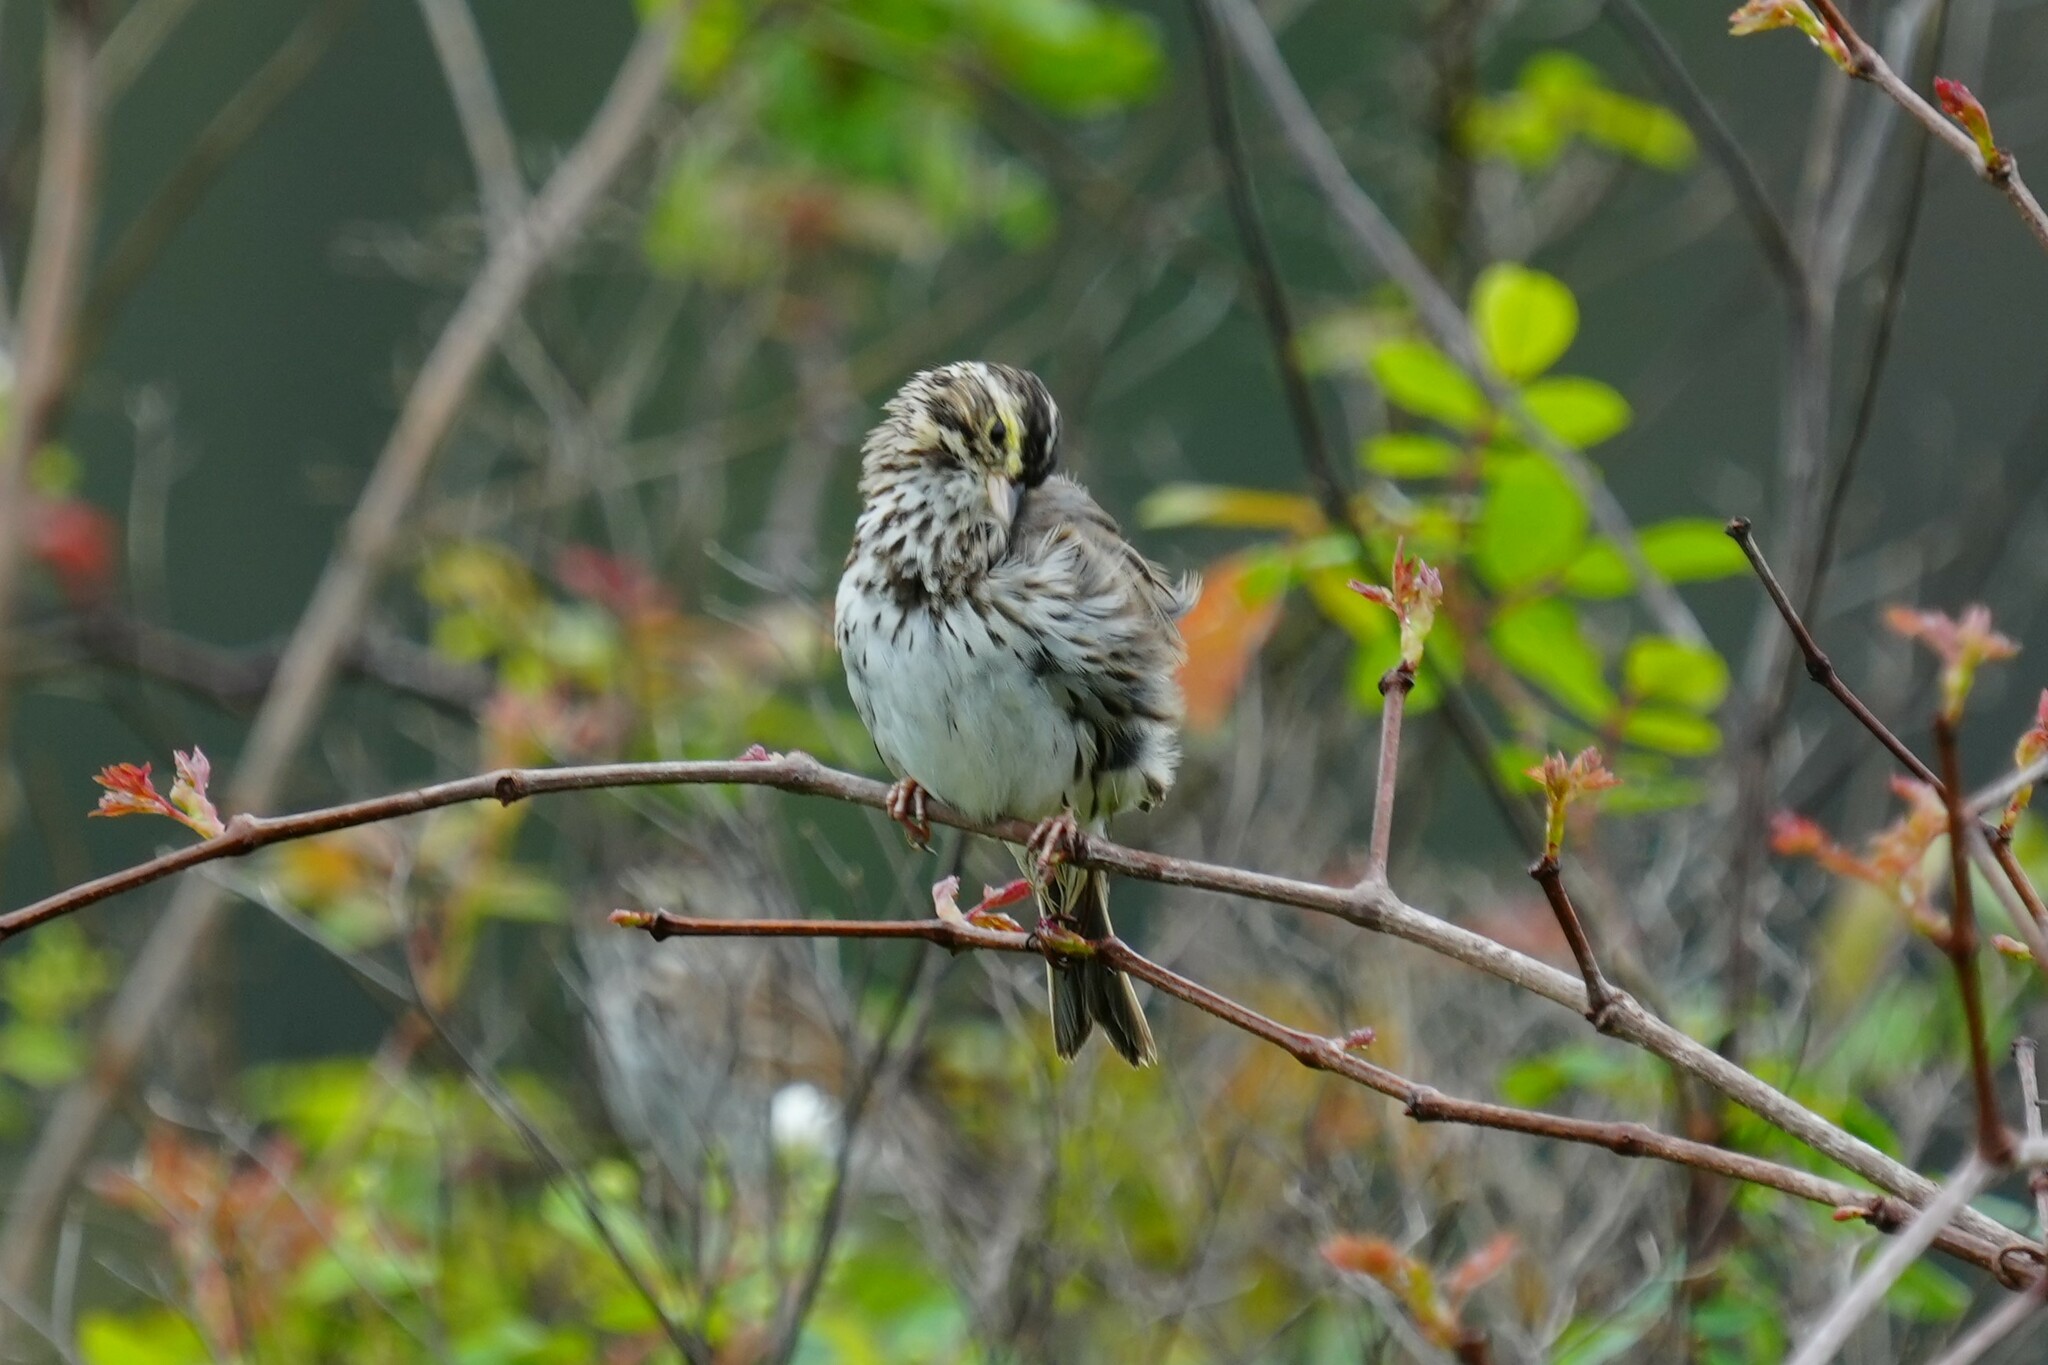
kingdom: Animalia
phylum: Chordata
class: Aves
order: Passeriformes
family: Passerellidae
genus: Passerculus
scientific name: Passerculus sandwichensis
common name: Savannah sparrow
